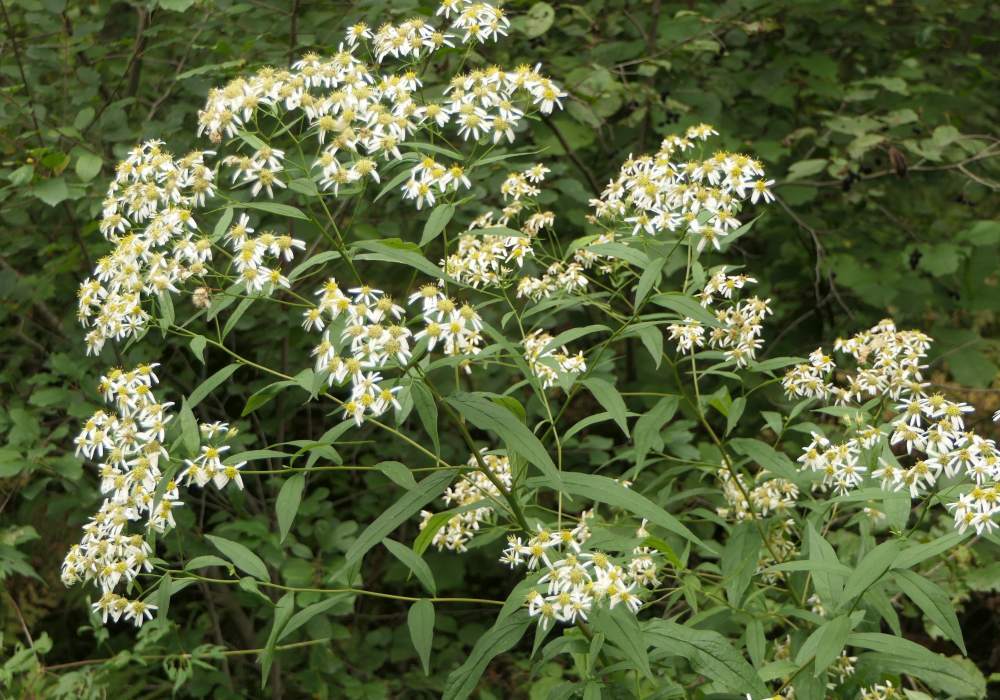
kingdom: Plantae
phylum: Tracheophyta
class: Magnoliopsida
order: Asterales
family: Asteraceae
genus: Doellingeria
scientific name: Doellingeria umbellata
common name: Flat-top white aster
